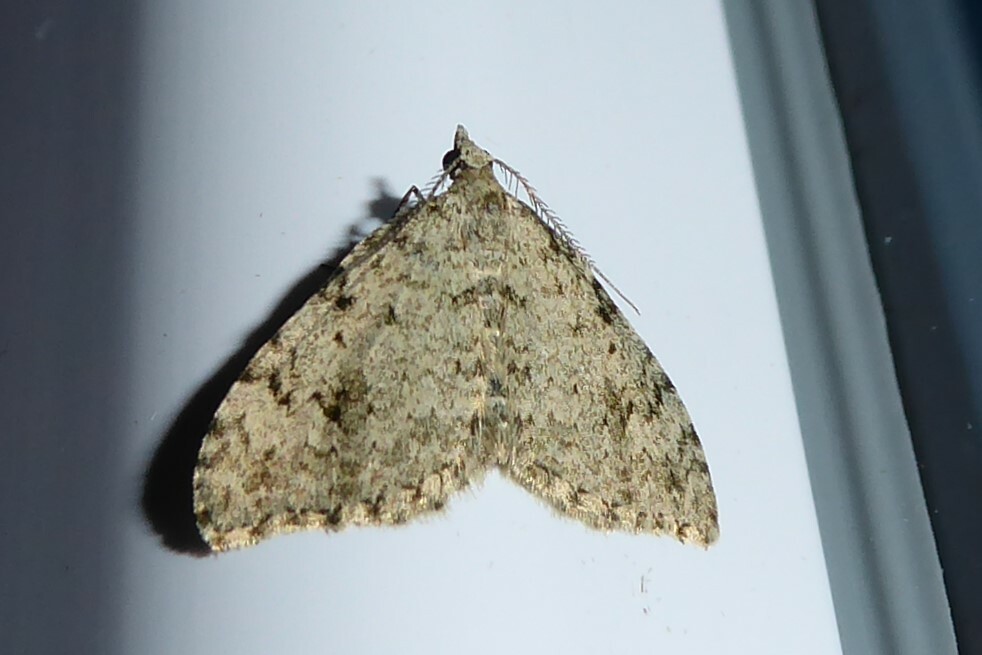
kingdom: Animalia
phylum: Arthropoda
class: Insecta
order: Lepidoptera
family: Geometridae
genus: Helastia
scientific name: Helastia cinerearia
